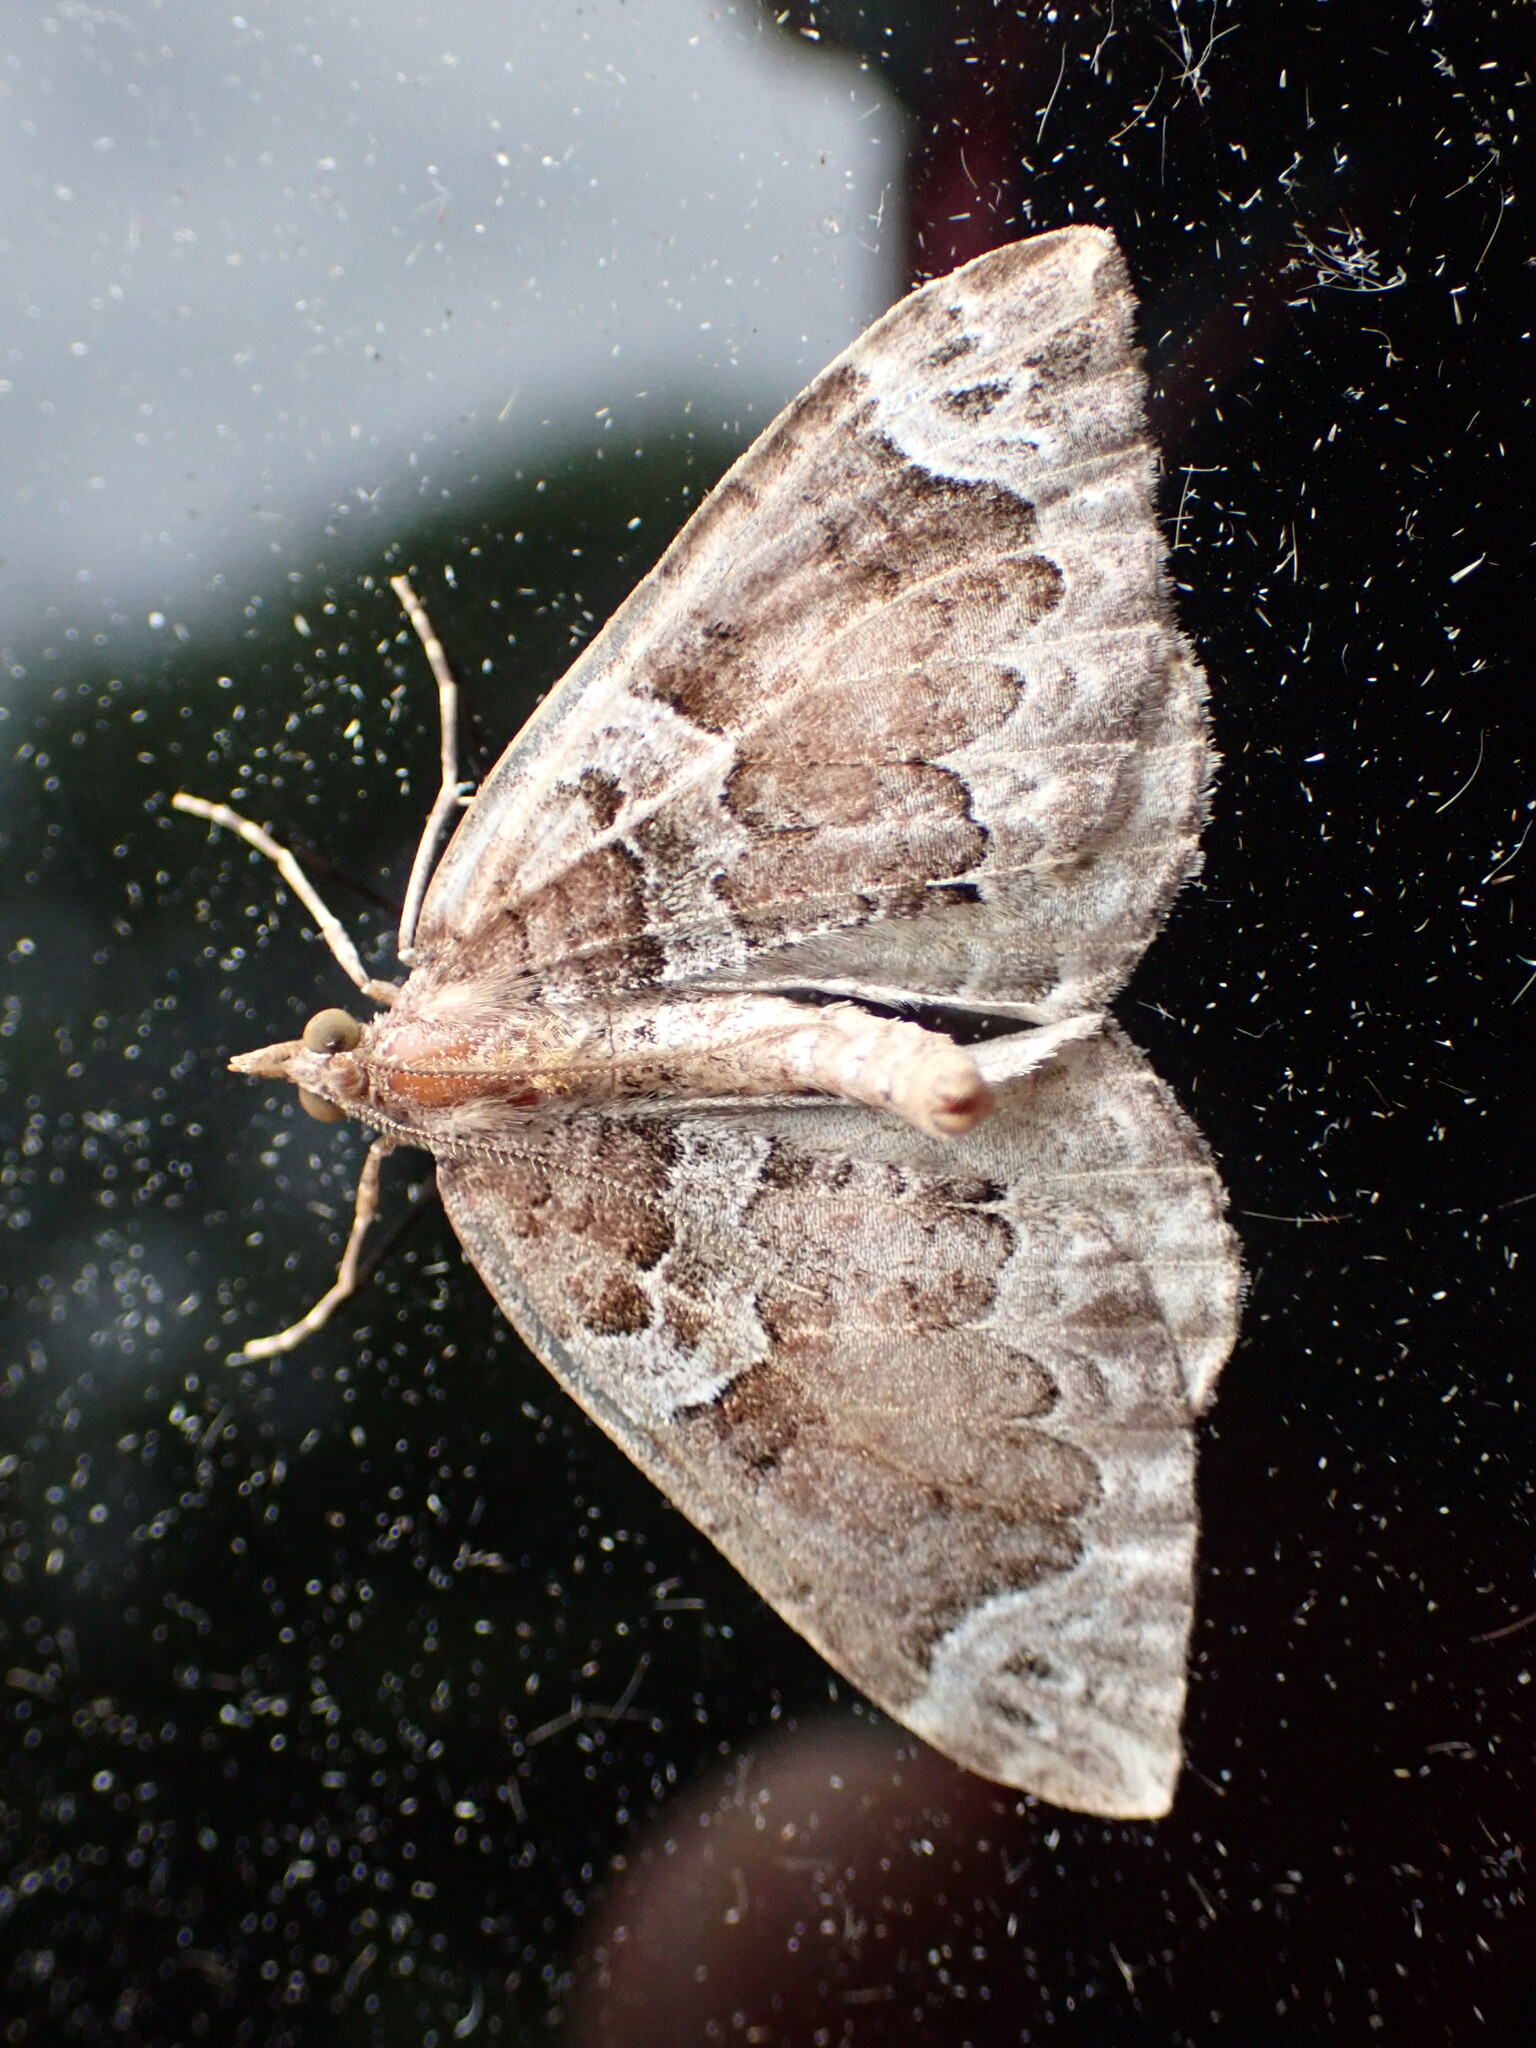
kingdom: Animalia
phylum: Arthropoda
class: Insecta
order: Lepidoptera
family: Geometridae
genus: Eulithis
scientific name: Eulithis xylina
